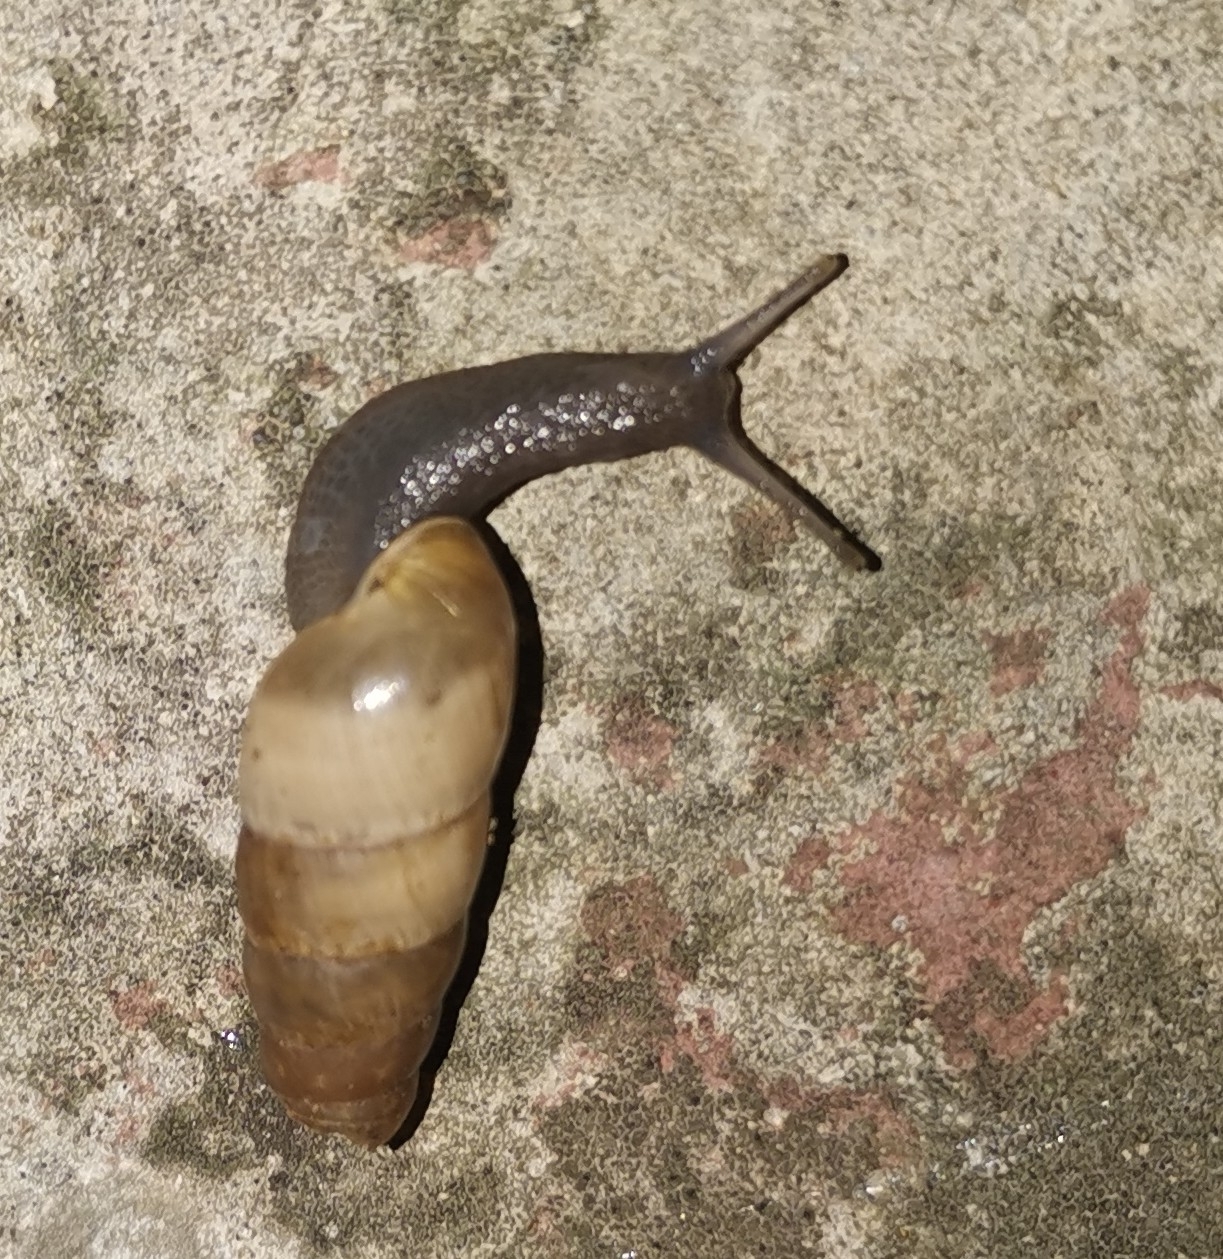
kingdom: Animalia
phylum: Mollusca
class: Gastropoda
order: Stylommatophora
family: Achatinidae
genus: Rumina
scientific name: Rumina decollata
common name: Decollate snail
